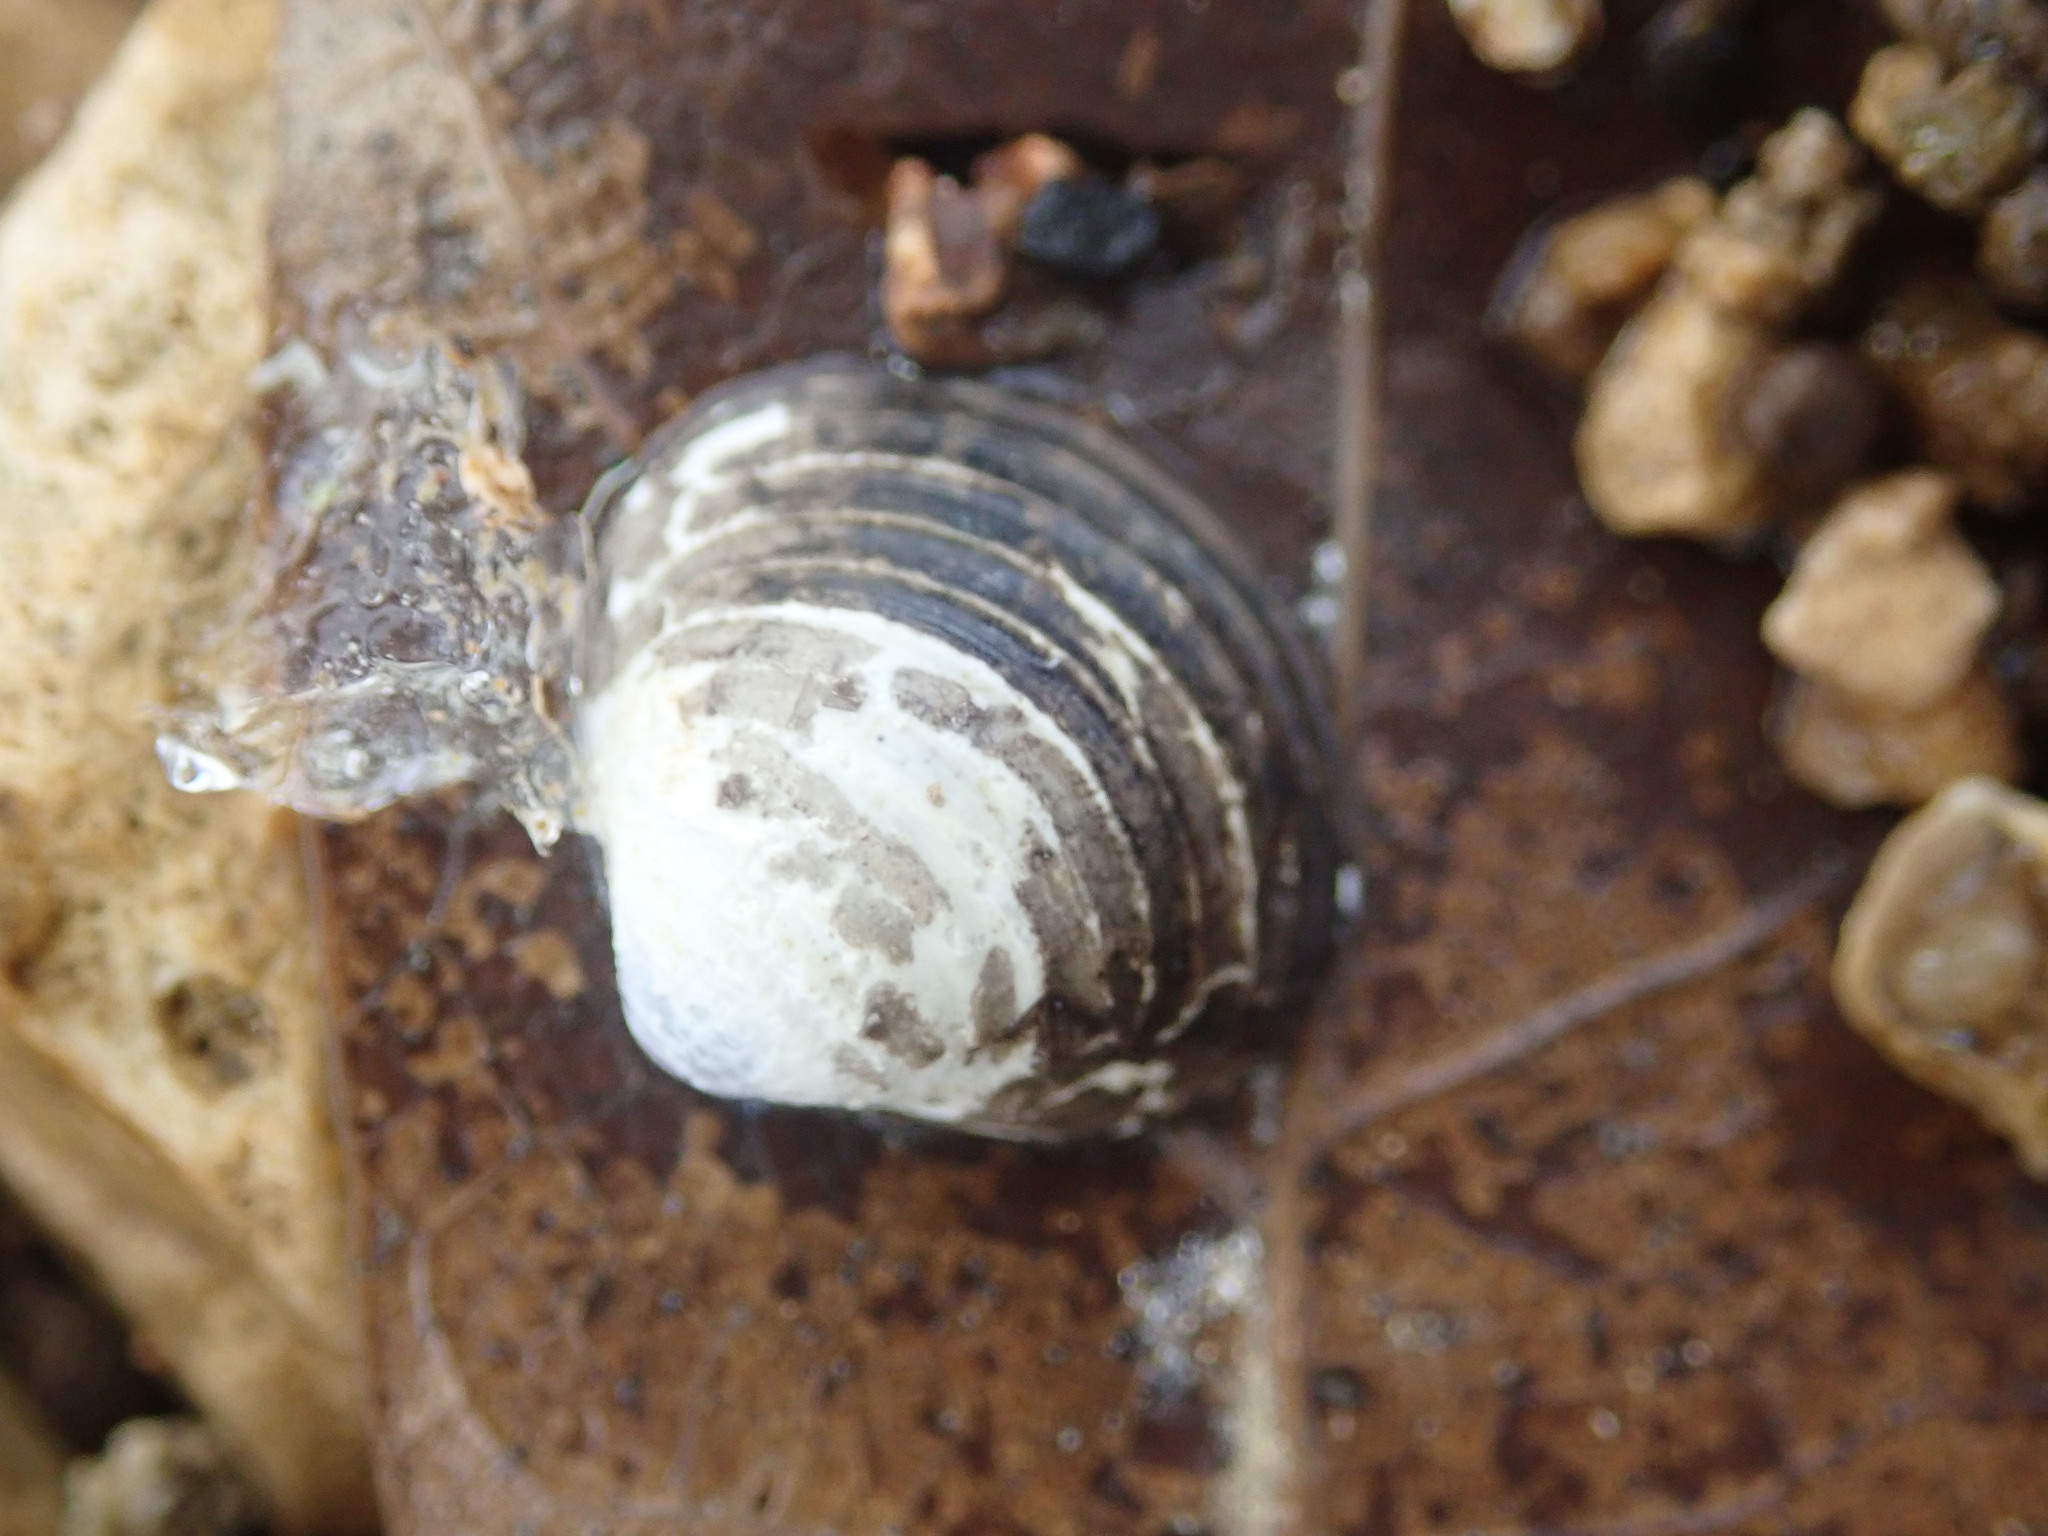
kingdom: Animalia
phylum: Mollusca
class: Bivalvia
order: Venerida
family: Cyrenidae
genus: Corbicula
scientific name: Corbicula fluminea
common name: Asian clam
